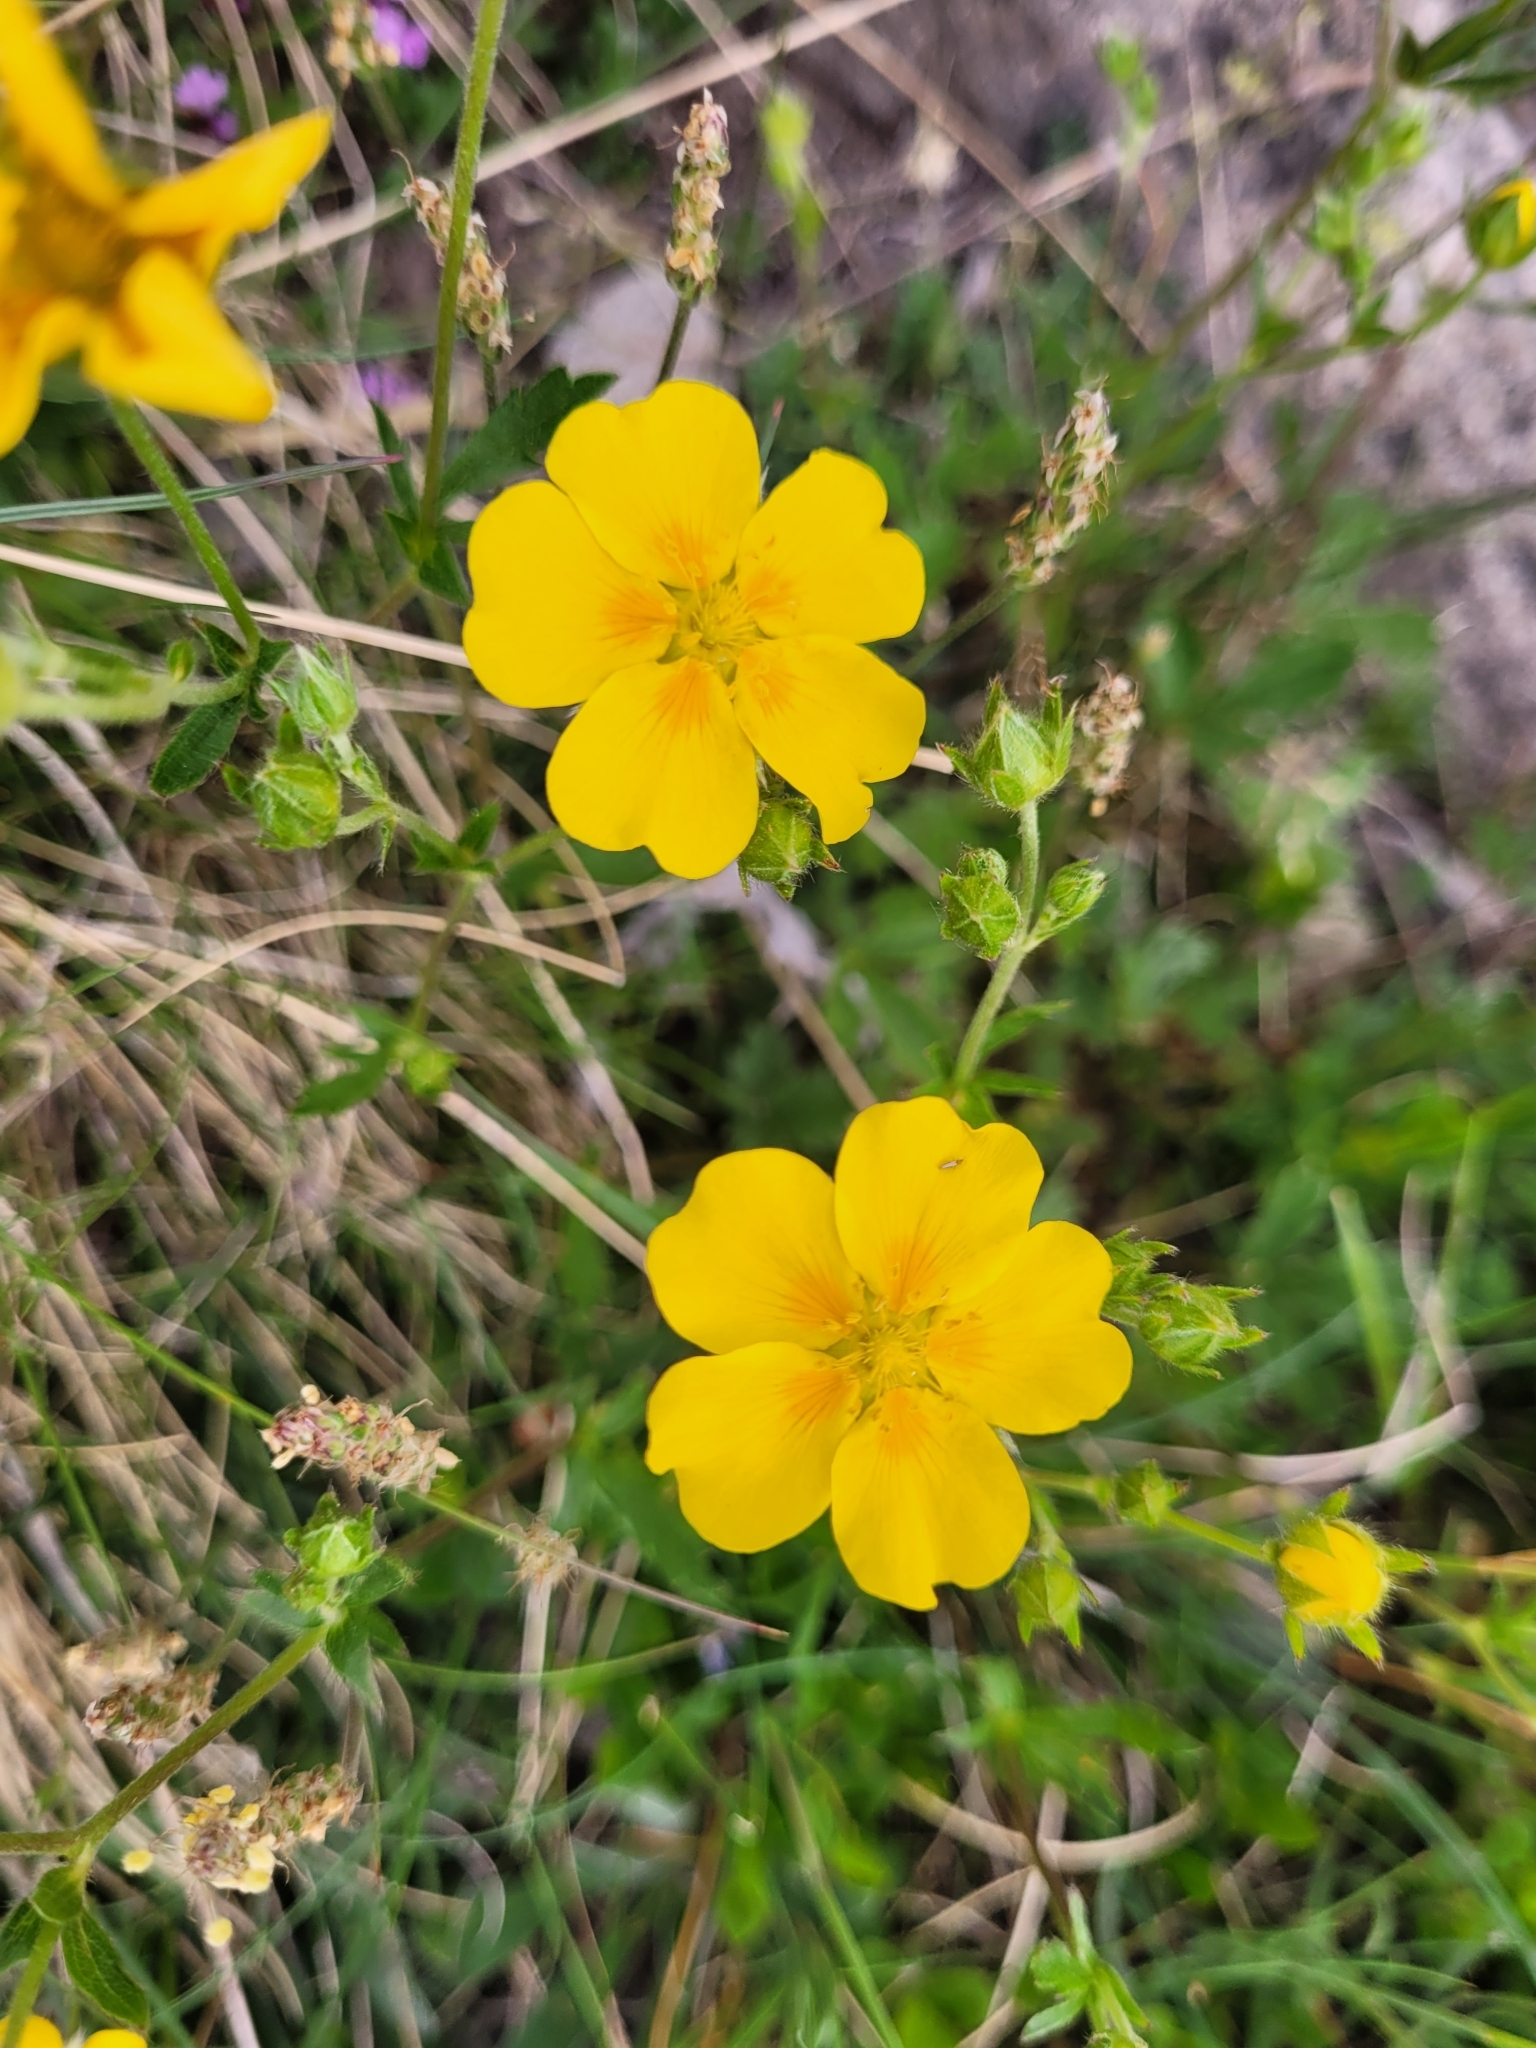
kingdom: Plantae
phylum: Tracheophyta
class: Magnoliopsida
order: Rosales
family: Rosaceae
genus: Potentilla
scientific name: Potentilla aurea
